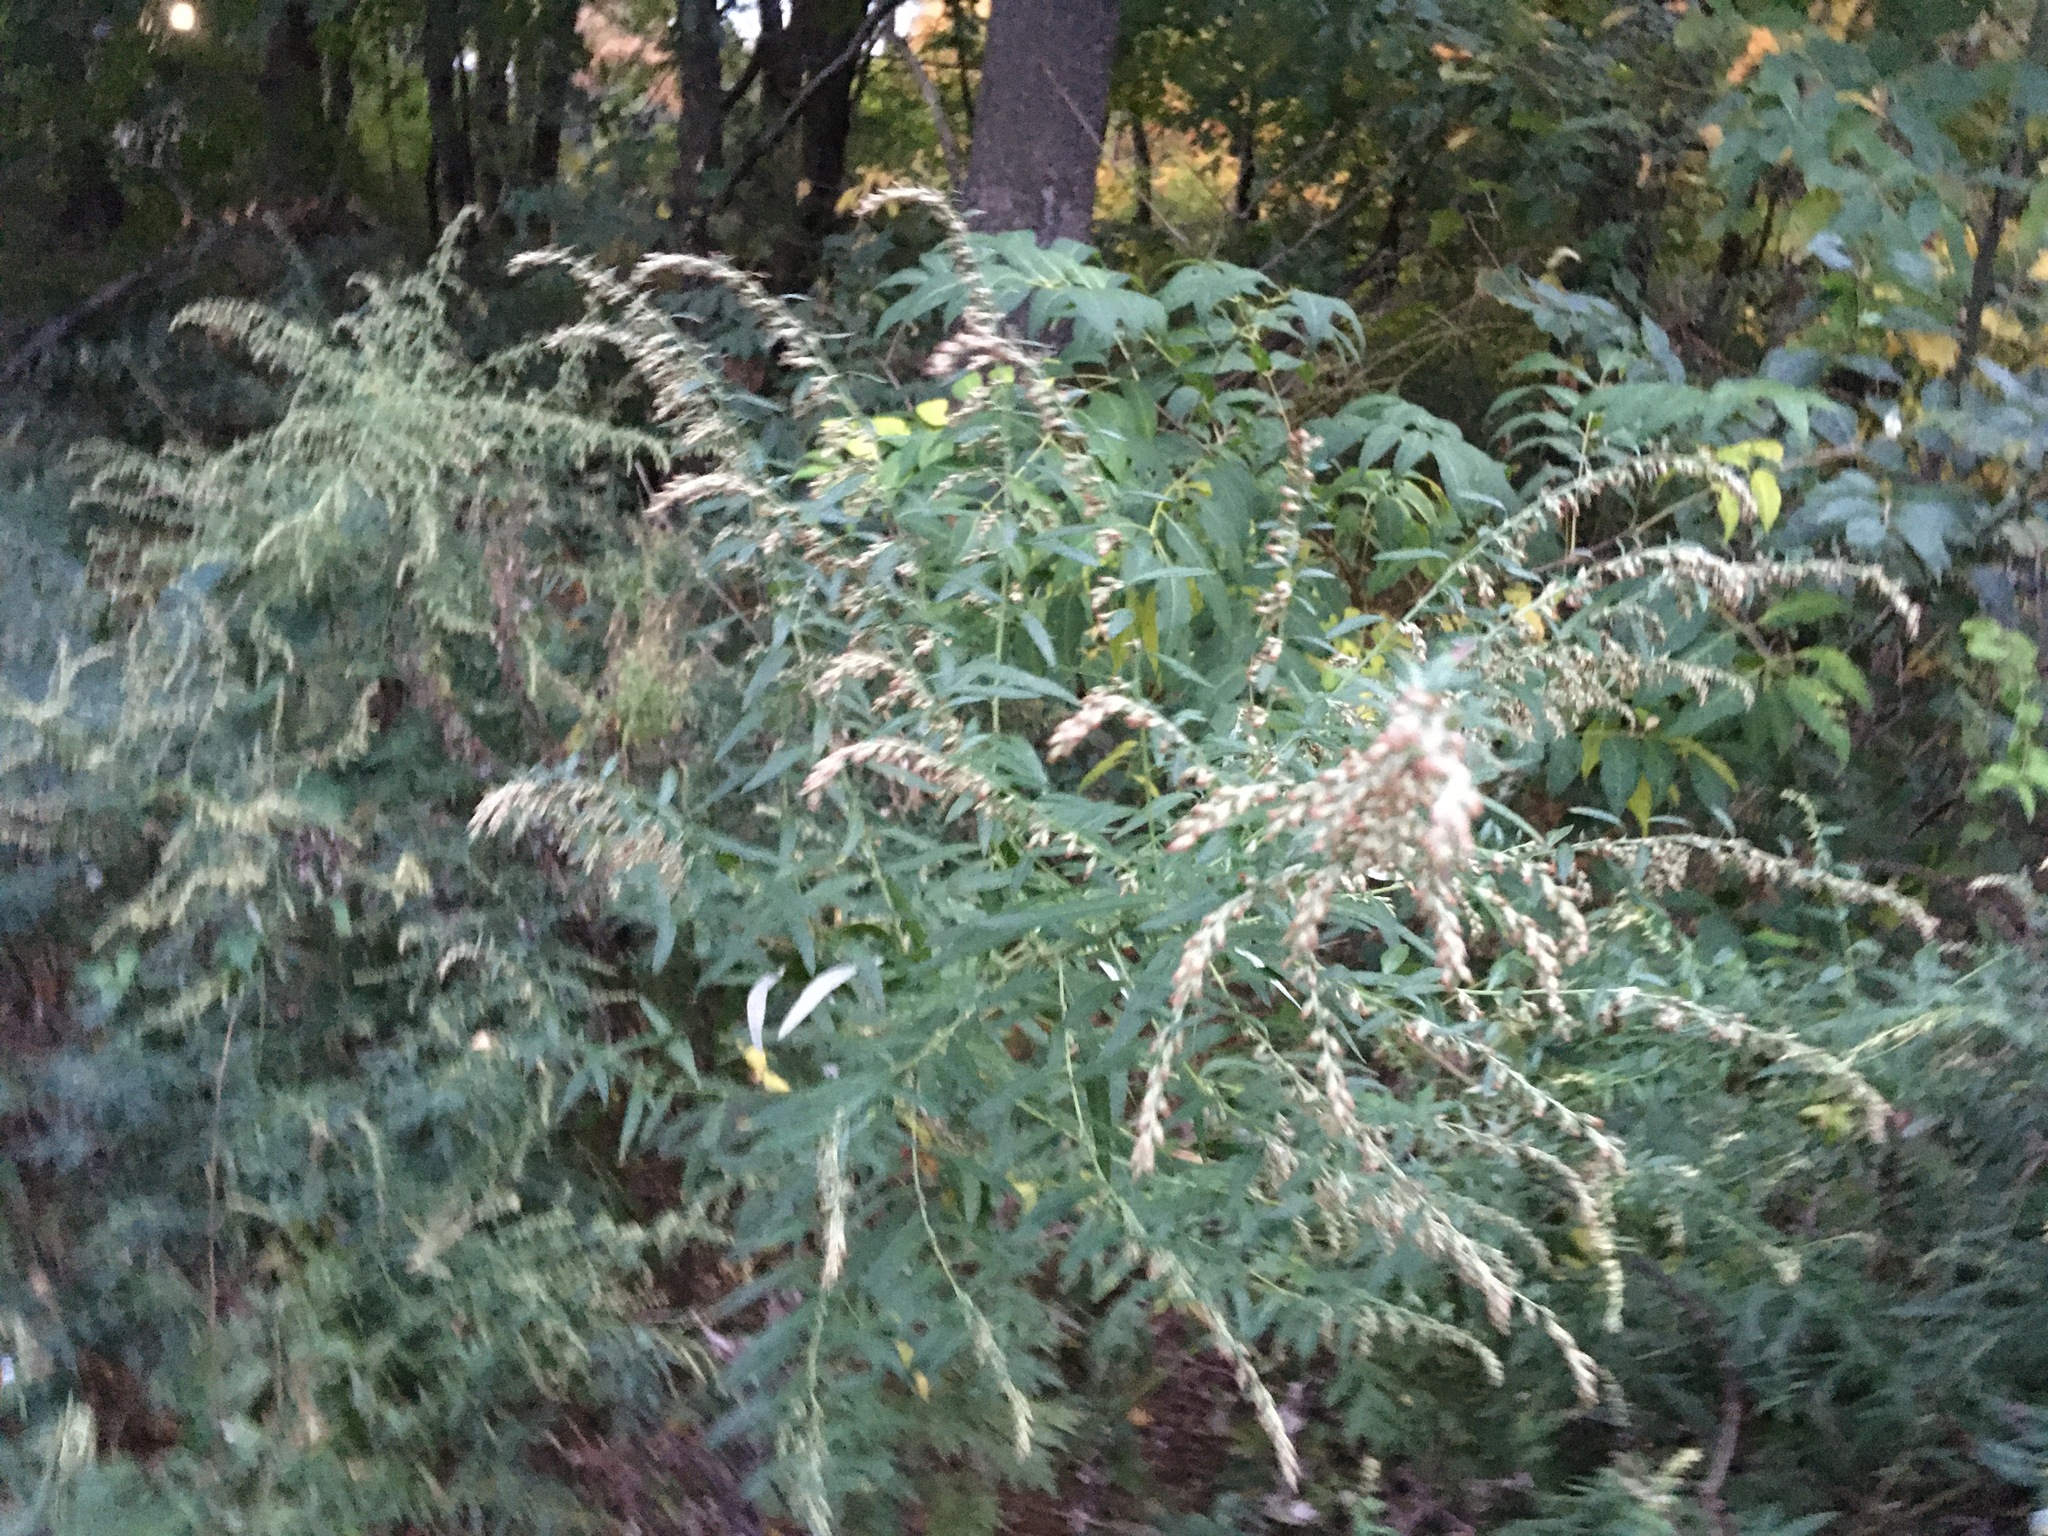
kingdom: Plantae
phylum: Tracheophyta
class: Magnoliopsida
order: Asterales
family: Asteraceae
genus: Artemisia
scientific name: Artemisia vulgaris
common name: Mugwort
